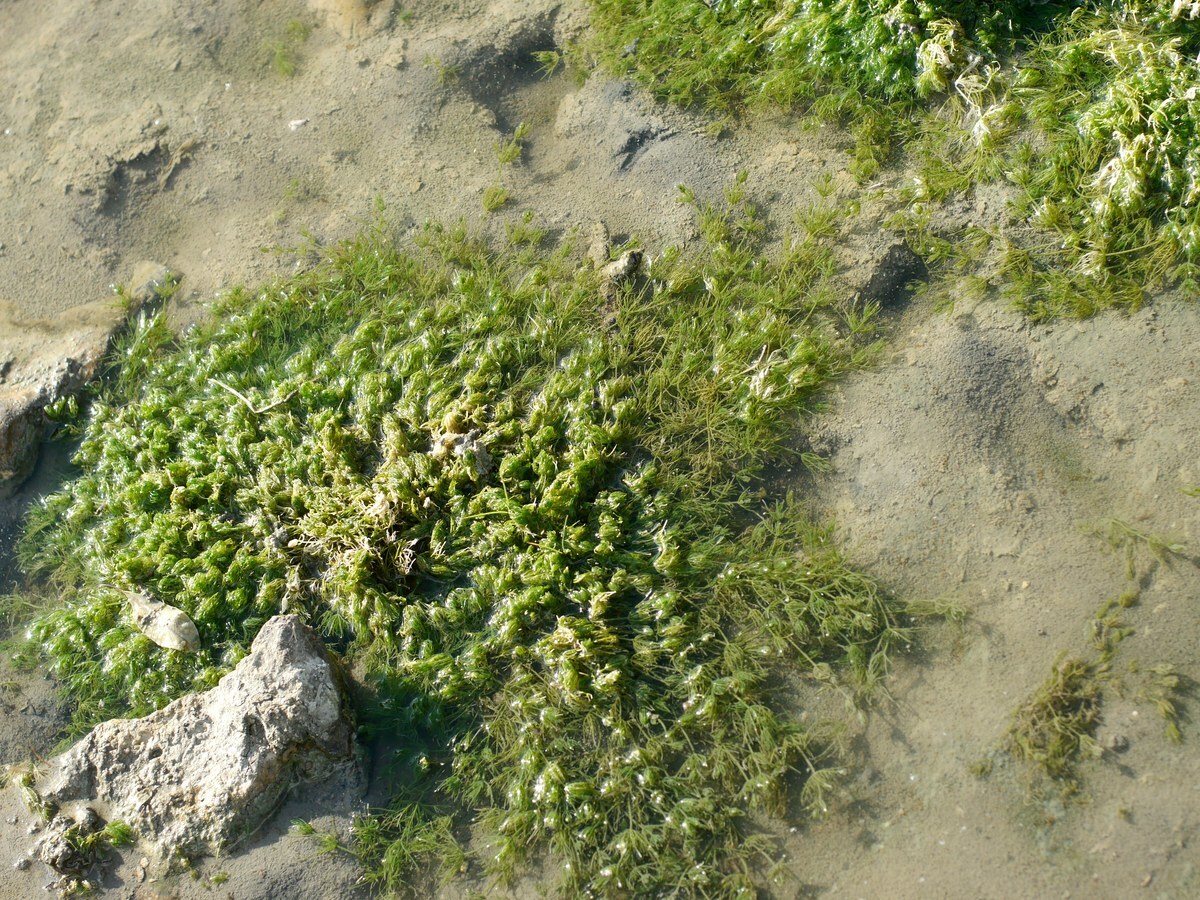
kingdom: Plantae
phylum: Charophyta
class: Charophyceae
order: Charales
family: Characeae
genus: Chara
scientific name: Chara vulgaris
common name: Common stonewort
